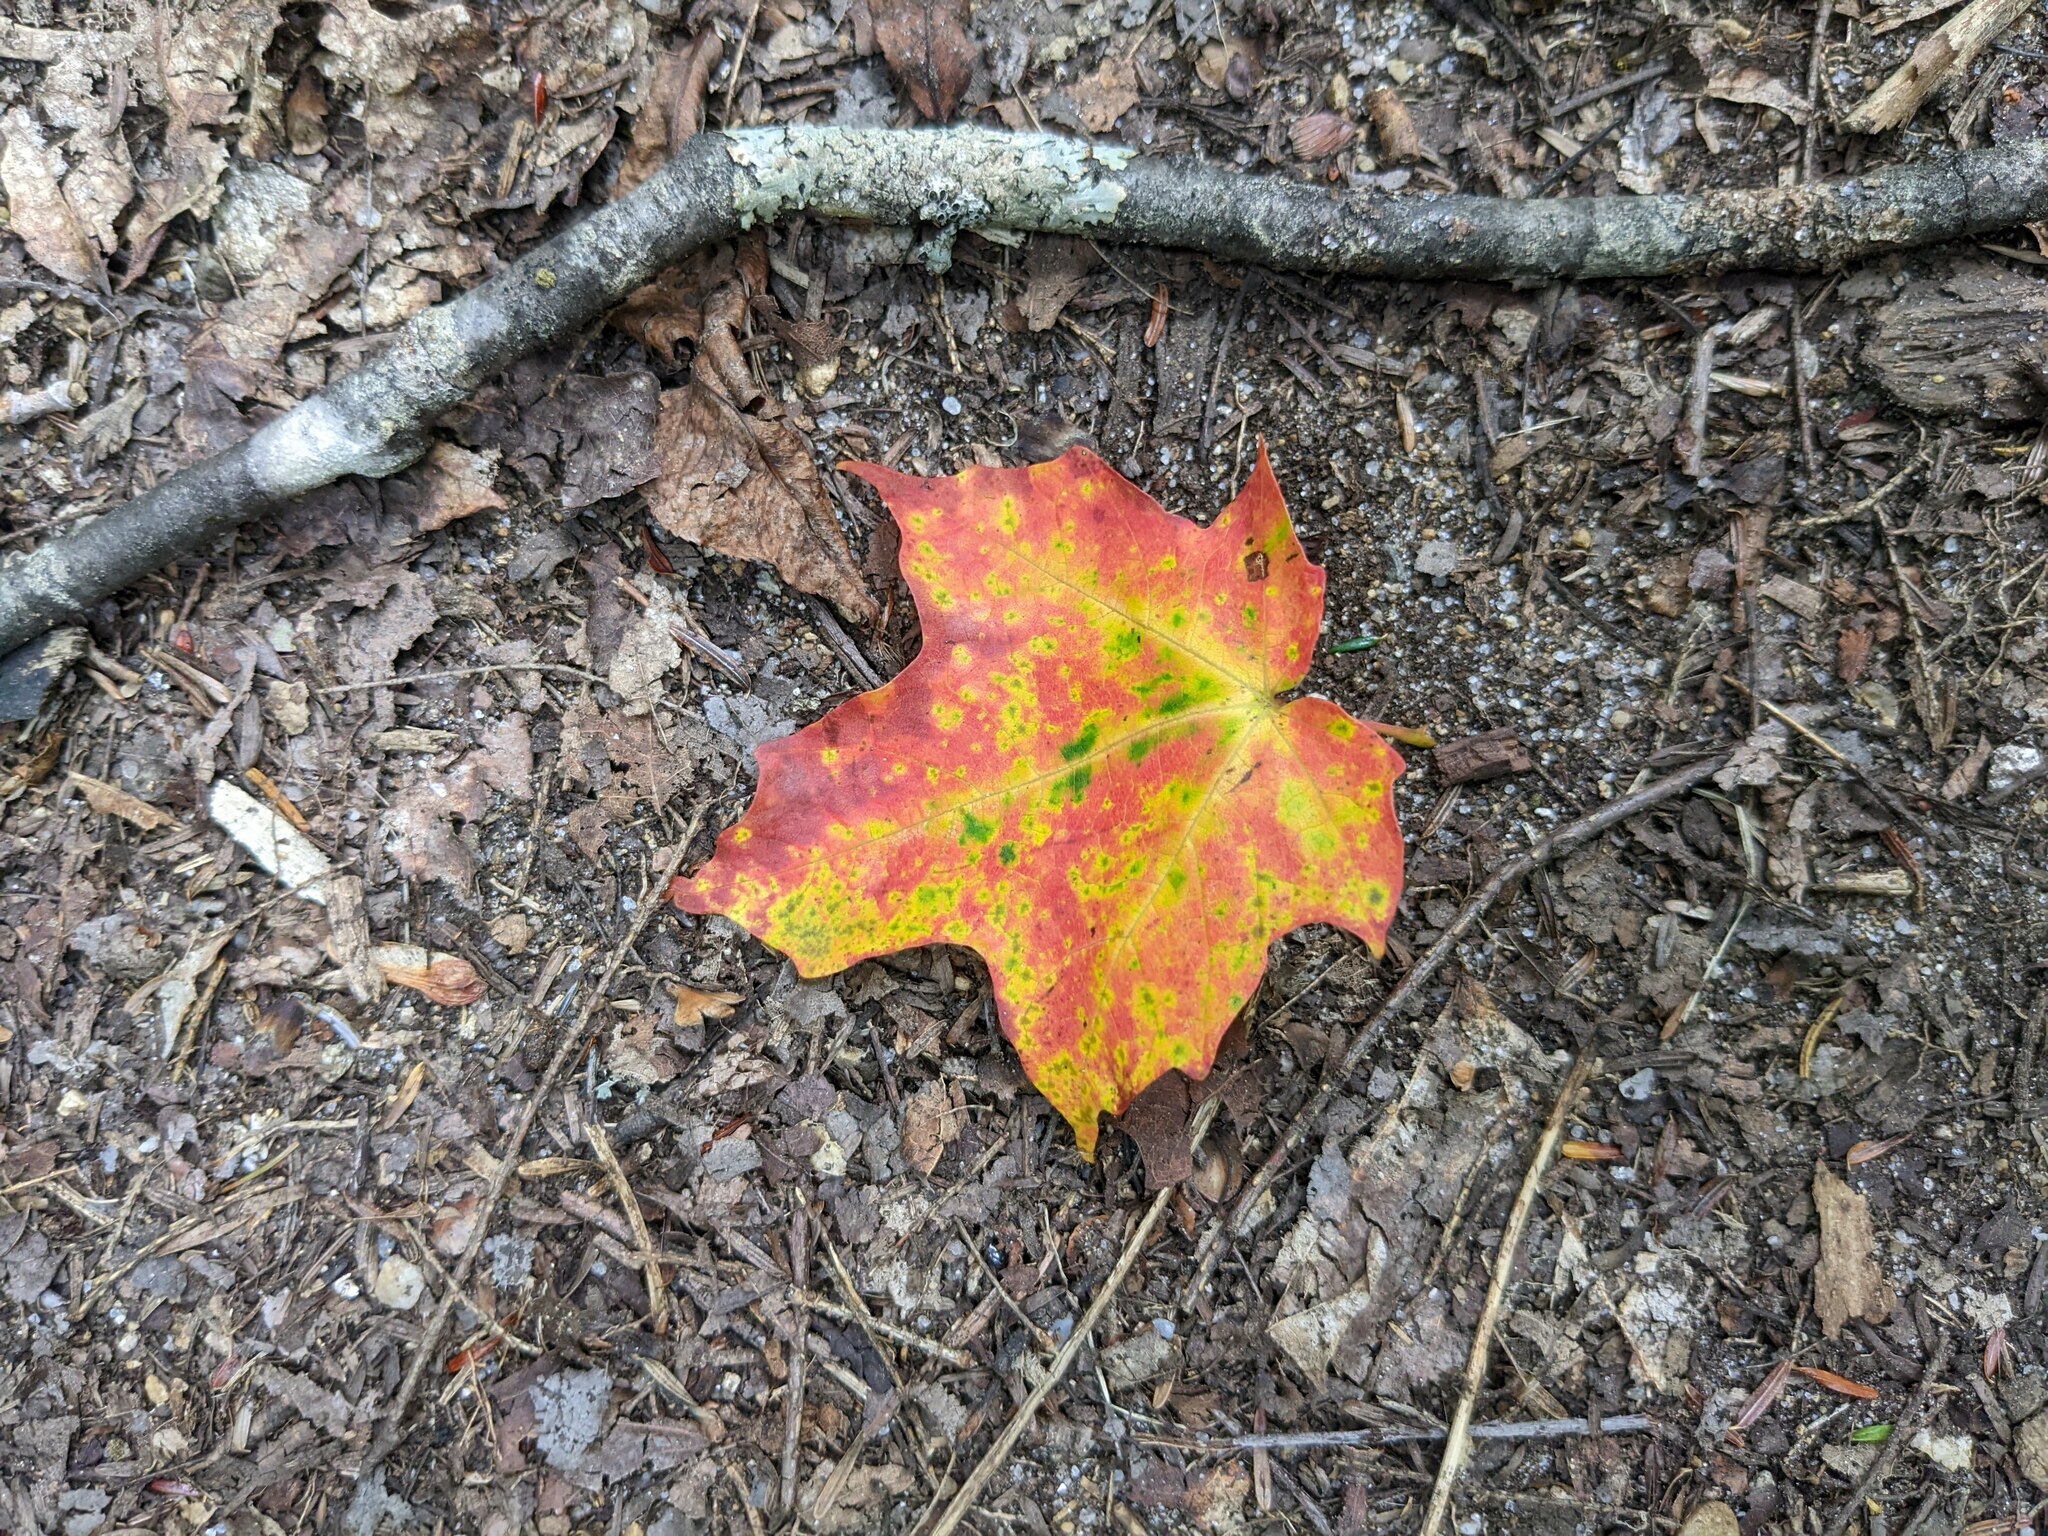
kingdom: Plantae
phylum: Tracheophyta
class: Magnoliopsida
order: Sapindales
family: Sapindaceae
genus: Acer
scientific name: Acer saccharum
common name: Sugar maple
